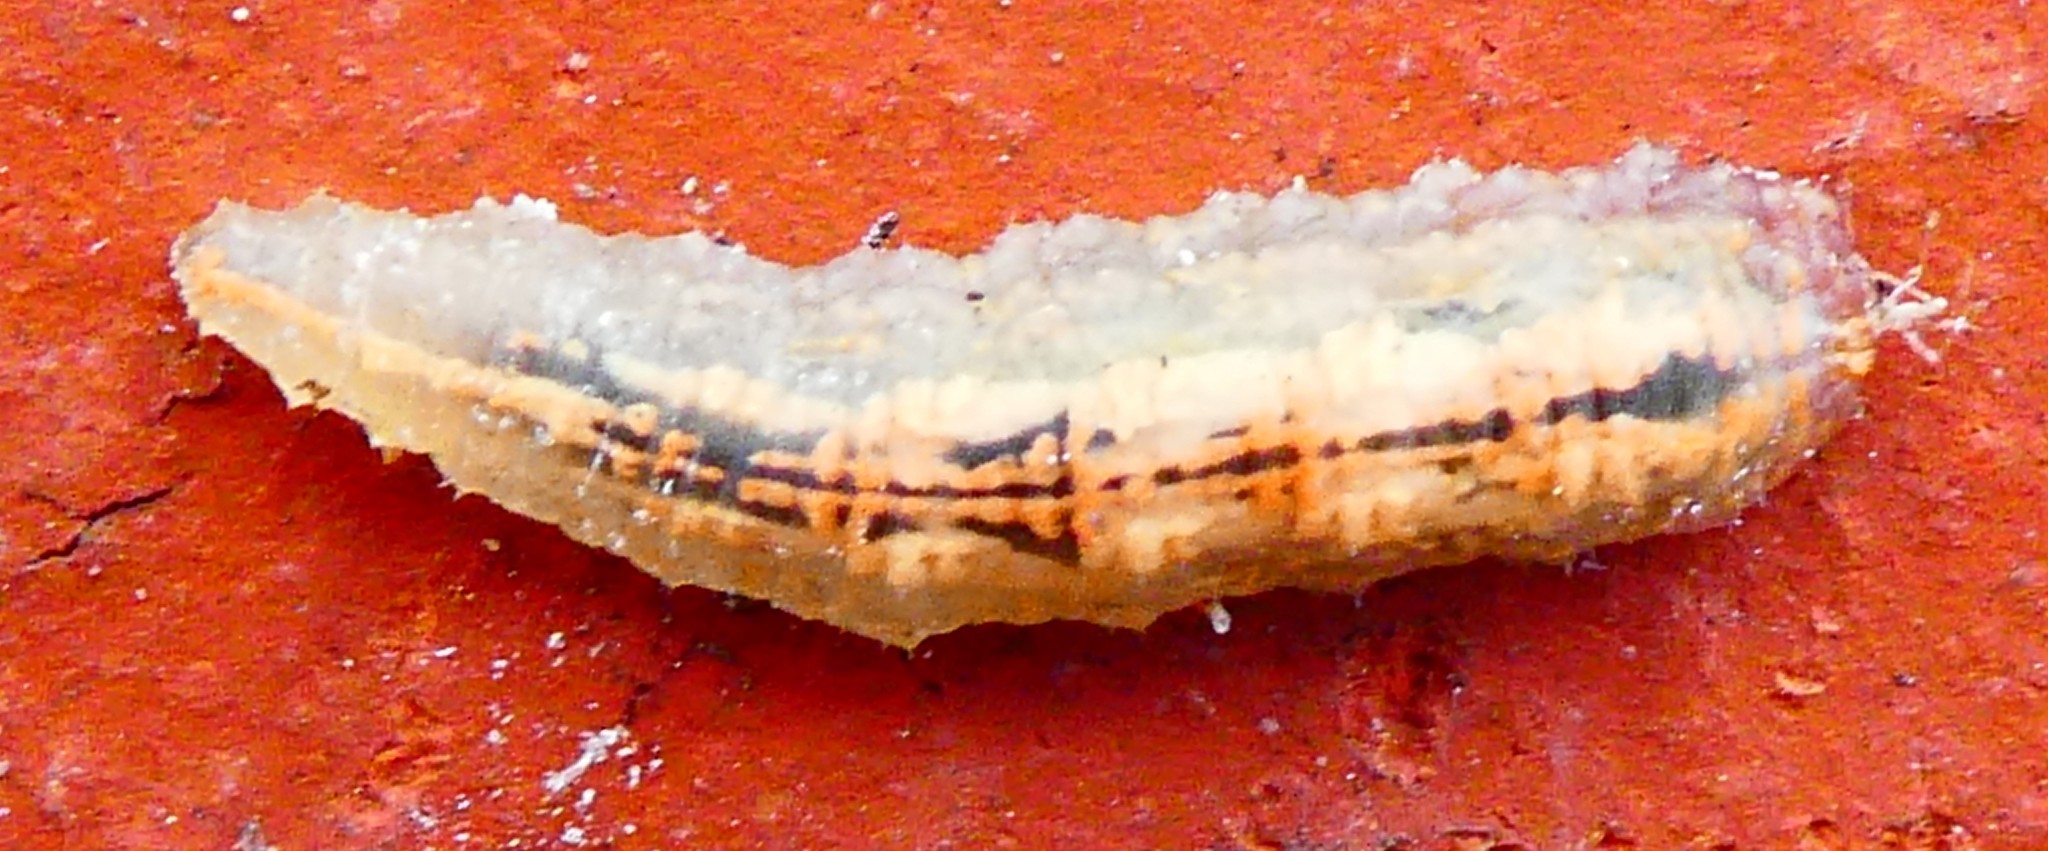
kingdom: Animalia
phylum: Arthropoda
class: Insecta
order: Diptera
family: Syrphidae
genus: Syrphus
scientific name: Syrphus
